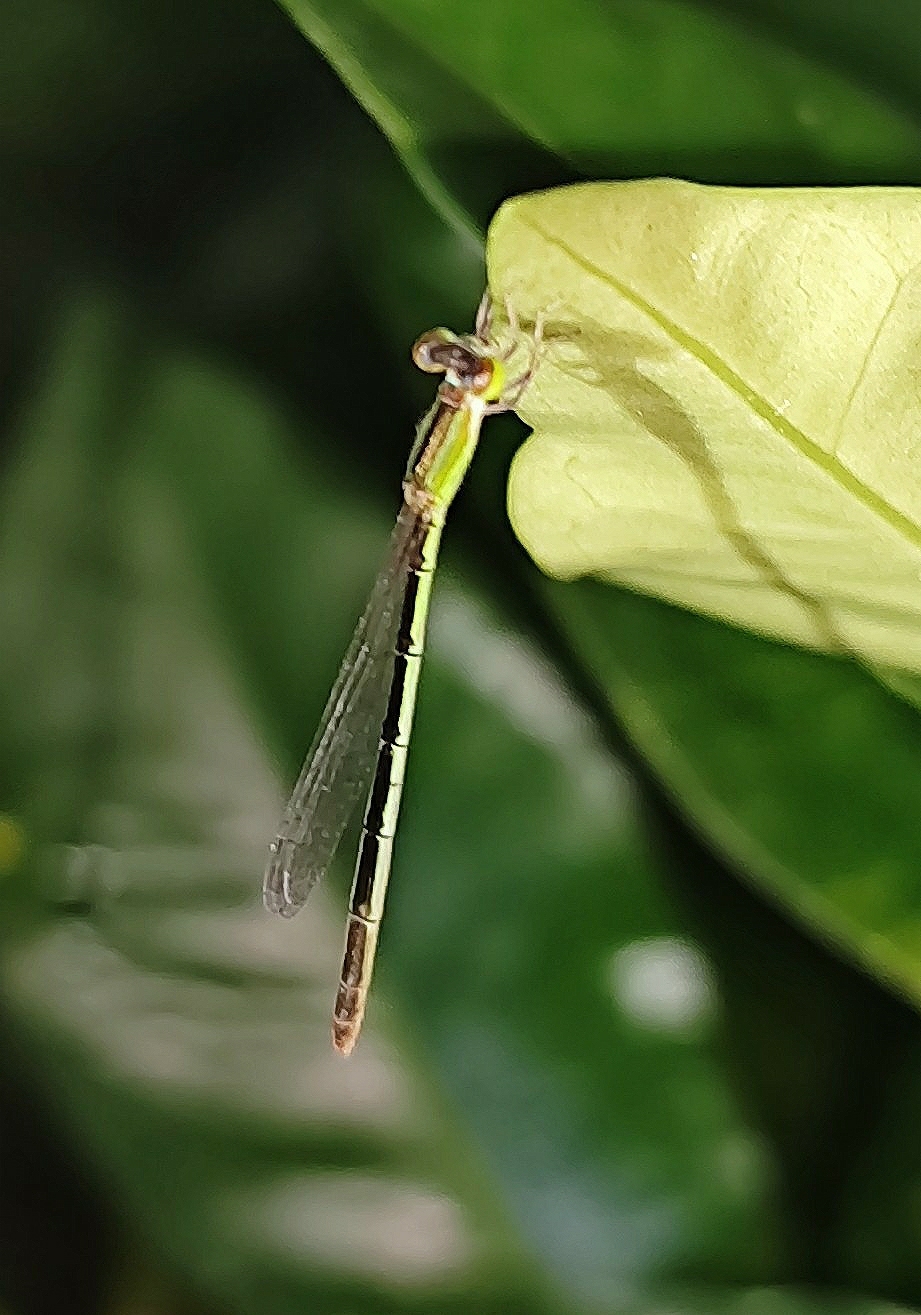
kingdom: Animalia
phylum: Arthropoda
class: Insecta
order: Odonata
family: Coenagrionidae
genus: Agriocnemis
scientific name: Agriocnemis pygmaea
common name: Pygmy wisp
